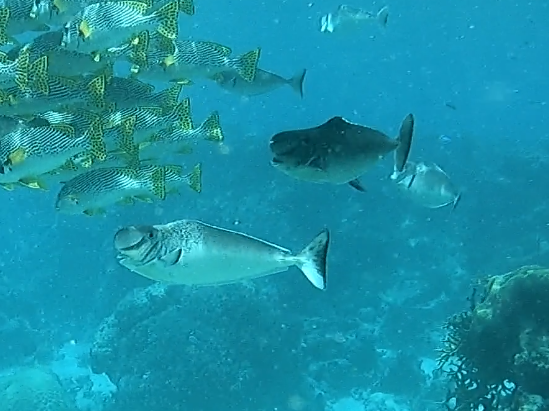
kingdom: Animalia
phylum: Chordata
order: Perciformes
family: Acanthuridae
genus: Naso
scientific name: Naso tonganus
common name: Humpnose unicornfish
